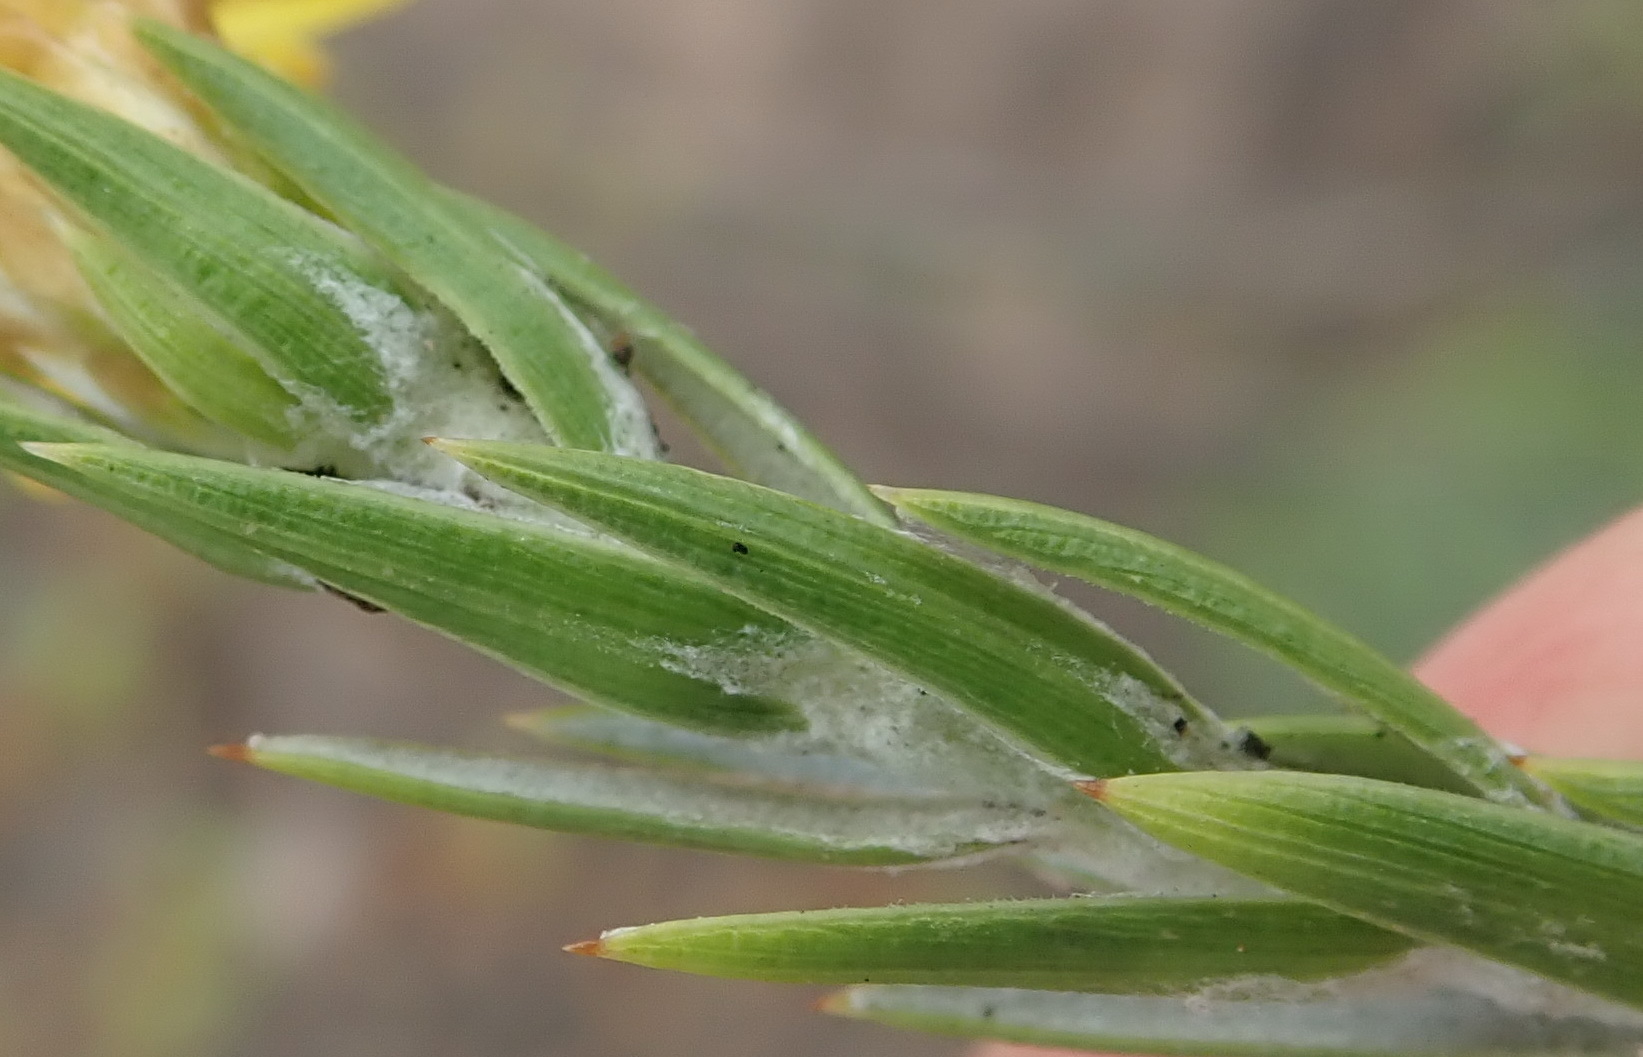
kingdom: Plantae
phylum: Tracheophyta
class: Magnoliopsida
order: Asterales
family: Asteraceae
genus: Oedera
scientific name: Oedera pungens
